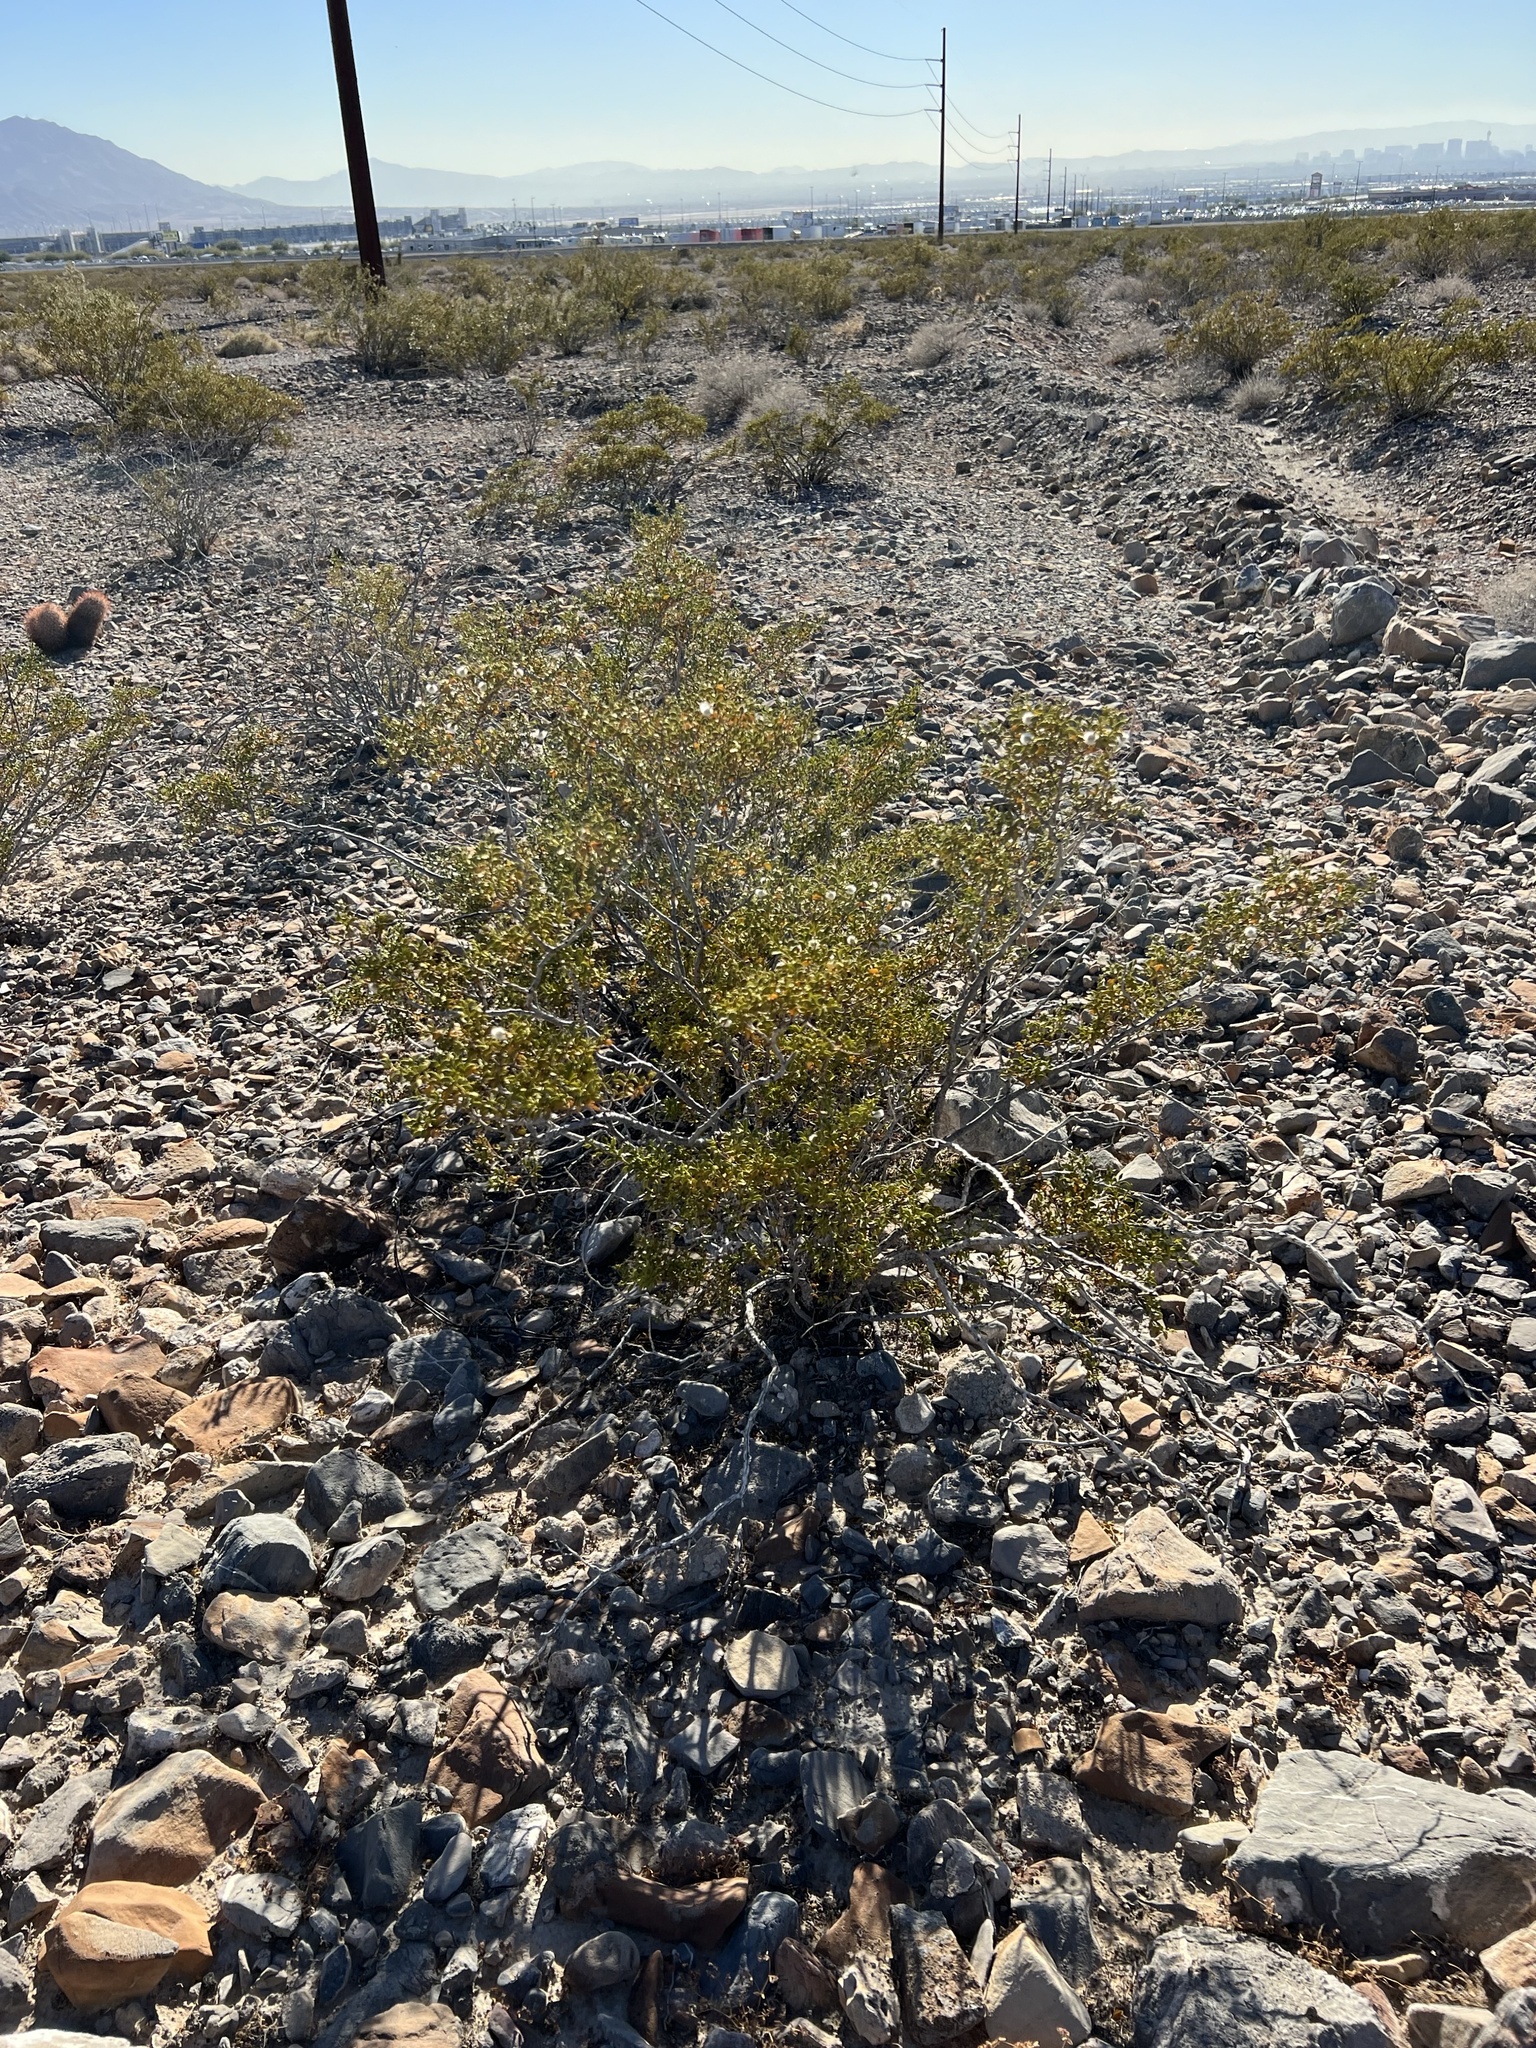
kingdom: Plantae
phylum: Tracheophyta
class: Magnoliopsida
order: Zygophyllales
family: Zygophyllaceae
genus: Larrea
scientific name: Larrea tridentata
